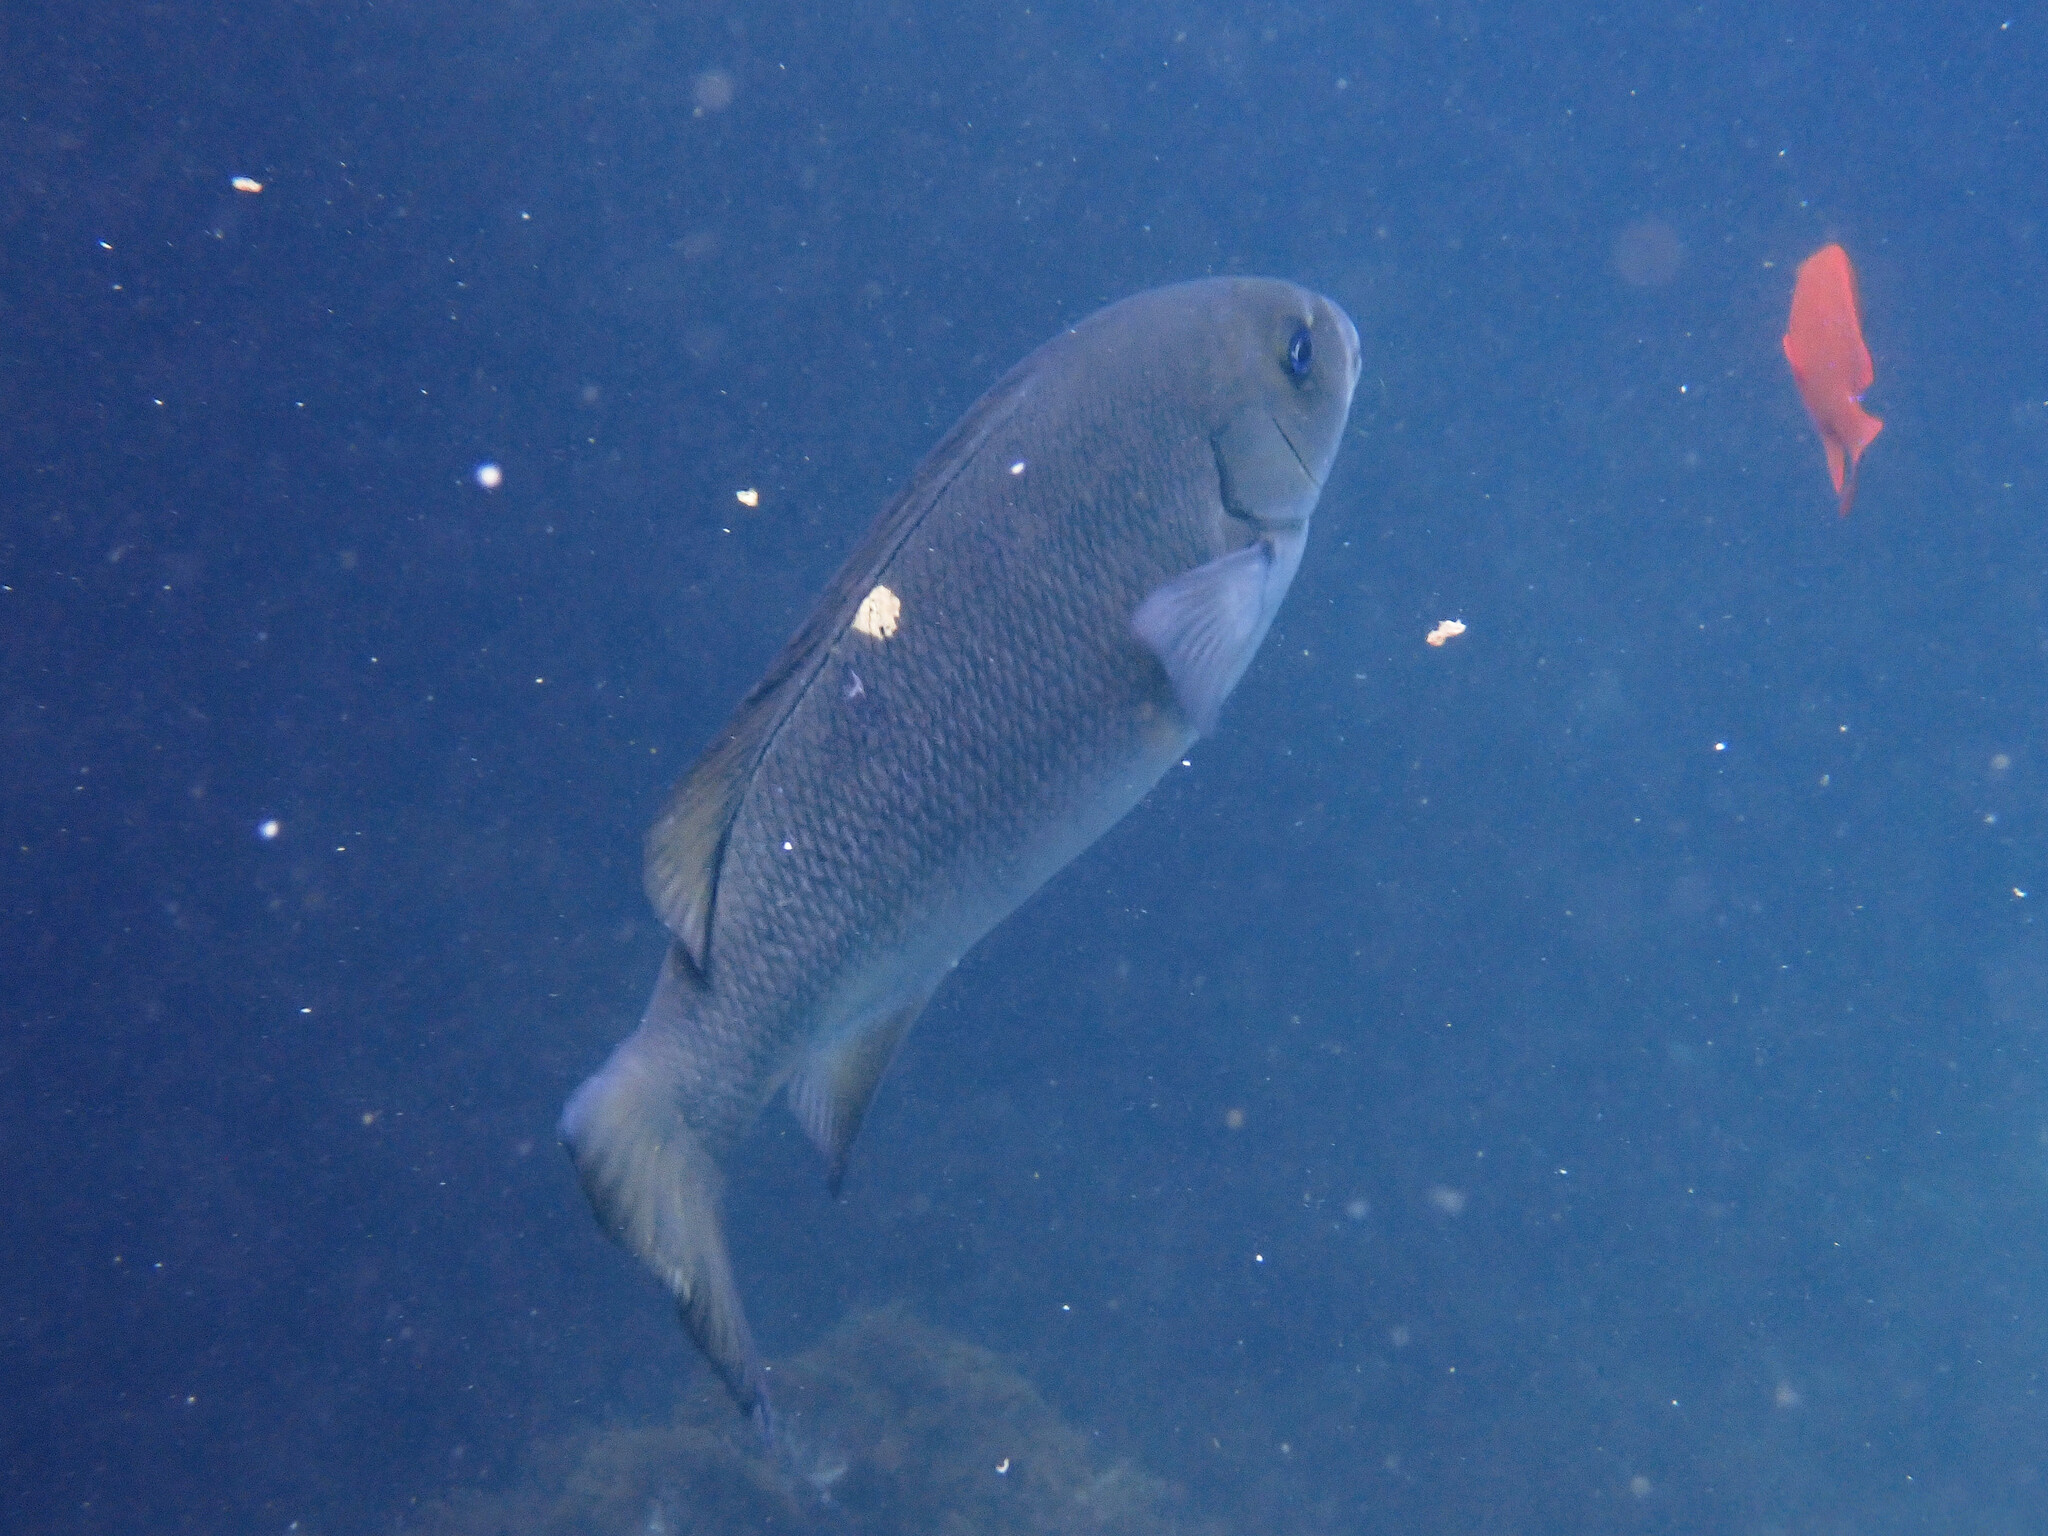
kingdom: Animalia
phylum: Chordata
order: Perciformes
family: Kyphosidae
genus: Girella
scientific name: Girella nigricans
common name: Opaleye
